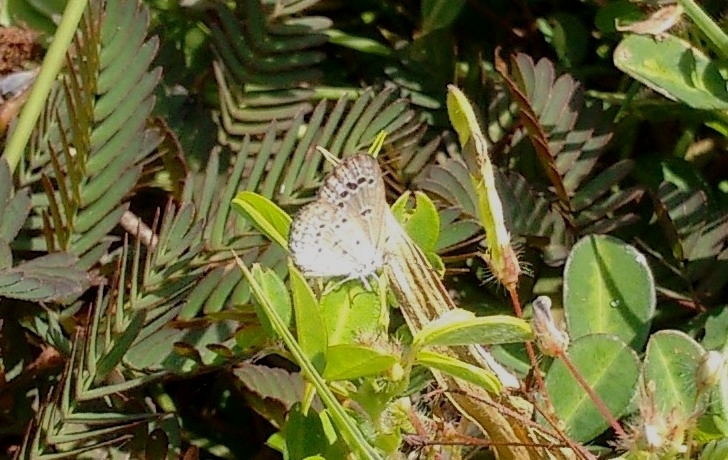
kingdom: Animalia
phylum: Arthropoda
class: Insecta
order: Lepidoptera
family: Lycaenidae
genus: Zizina
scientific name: Zizina otis
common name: Lesser grass blue
